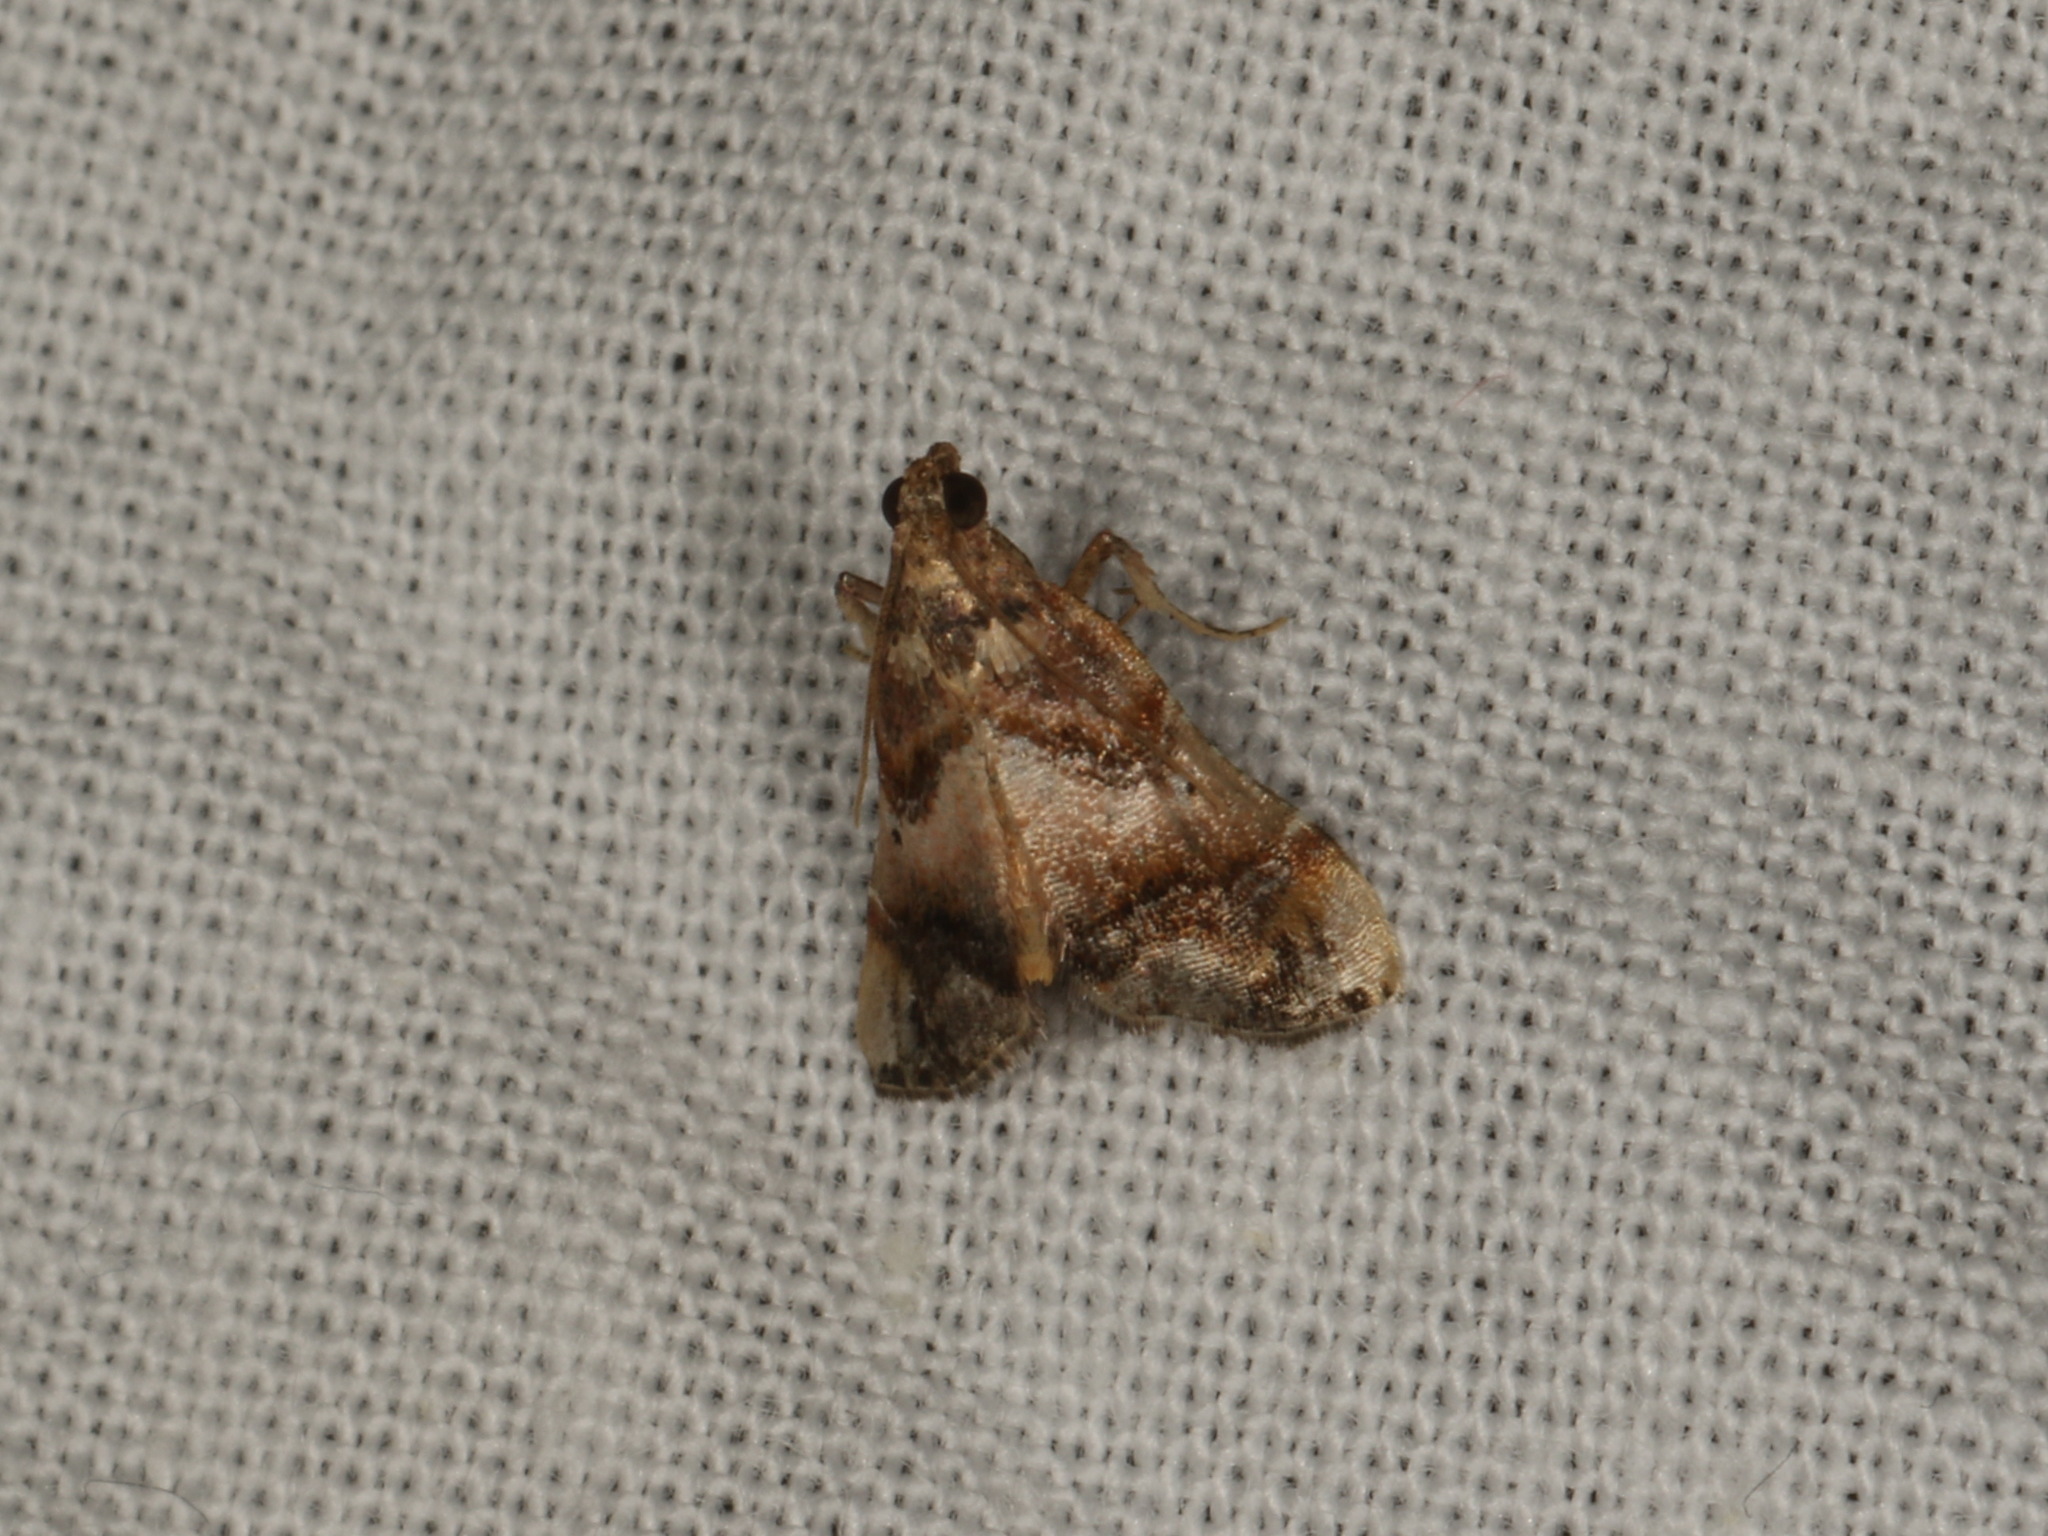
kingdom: Animalia
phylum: Arthropoda
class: Insecta
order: Lepidoptera
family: Pyralidae
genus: Scenedra
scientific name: Scenedra decoratalis
